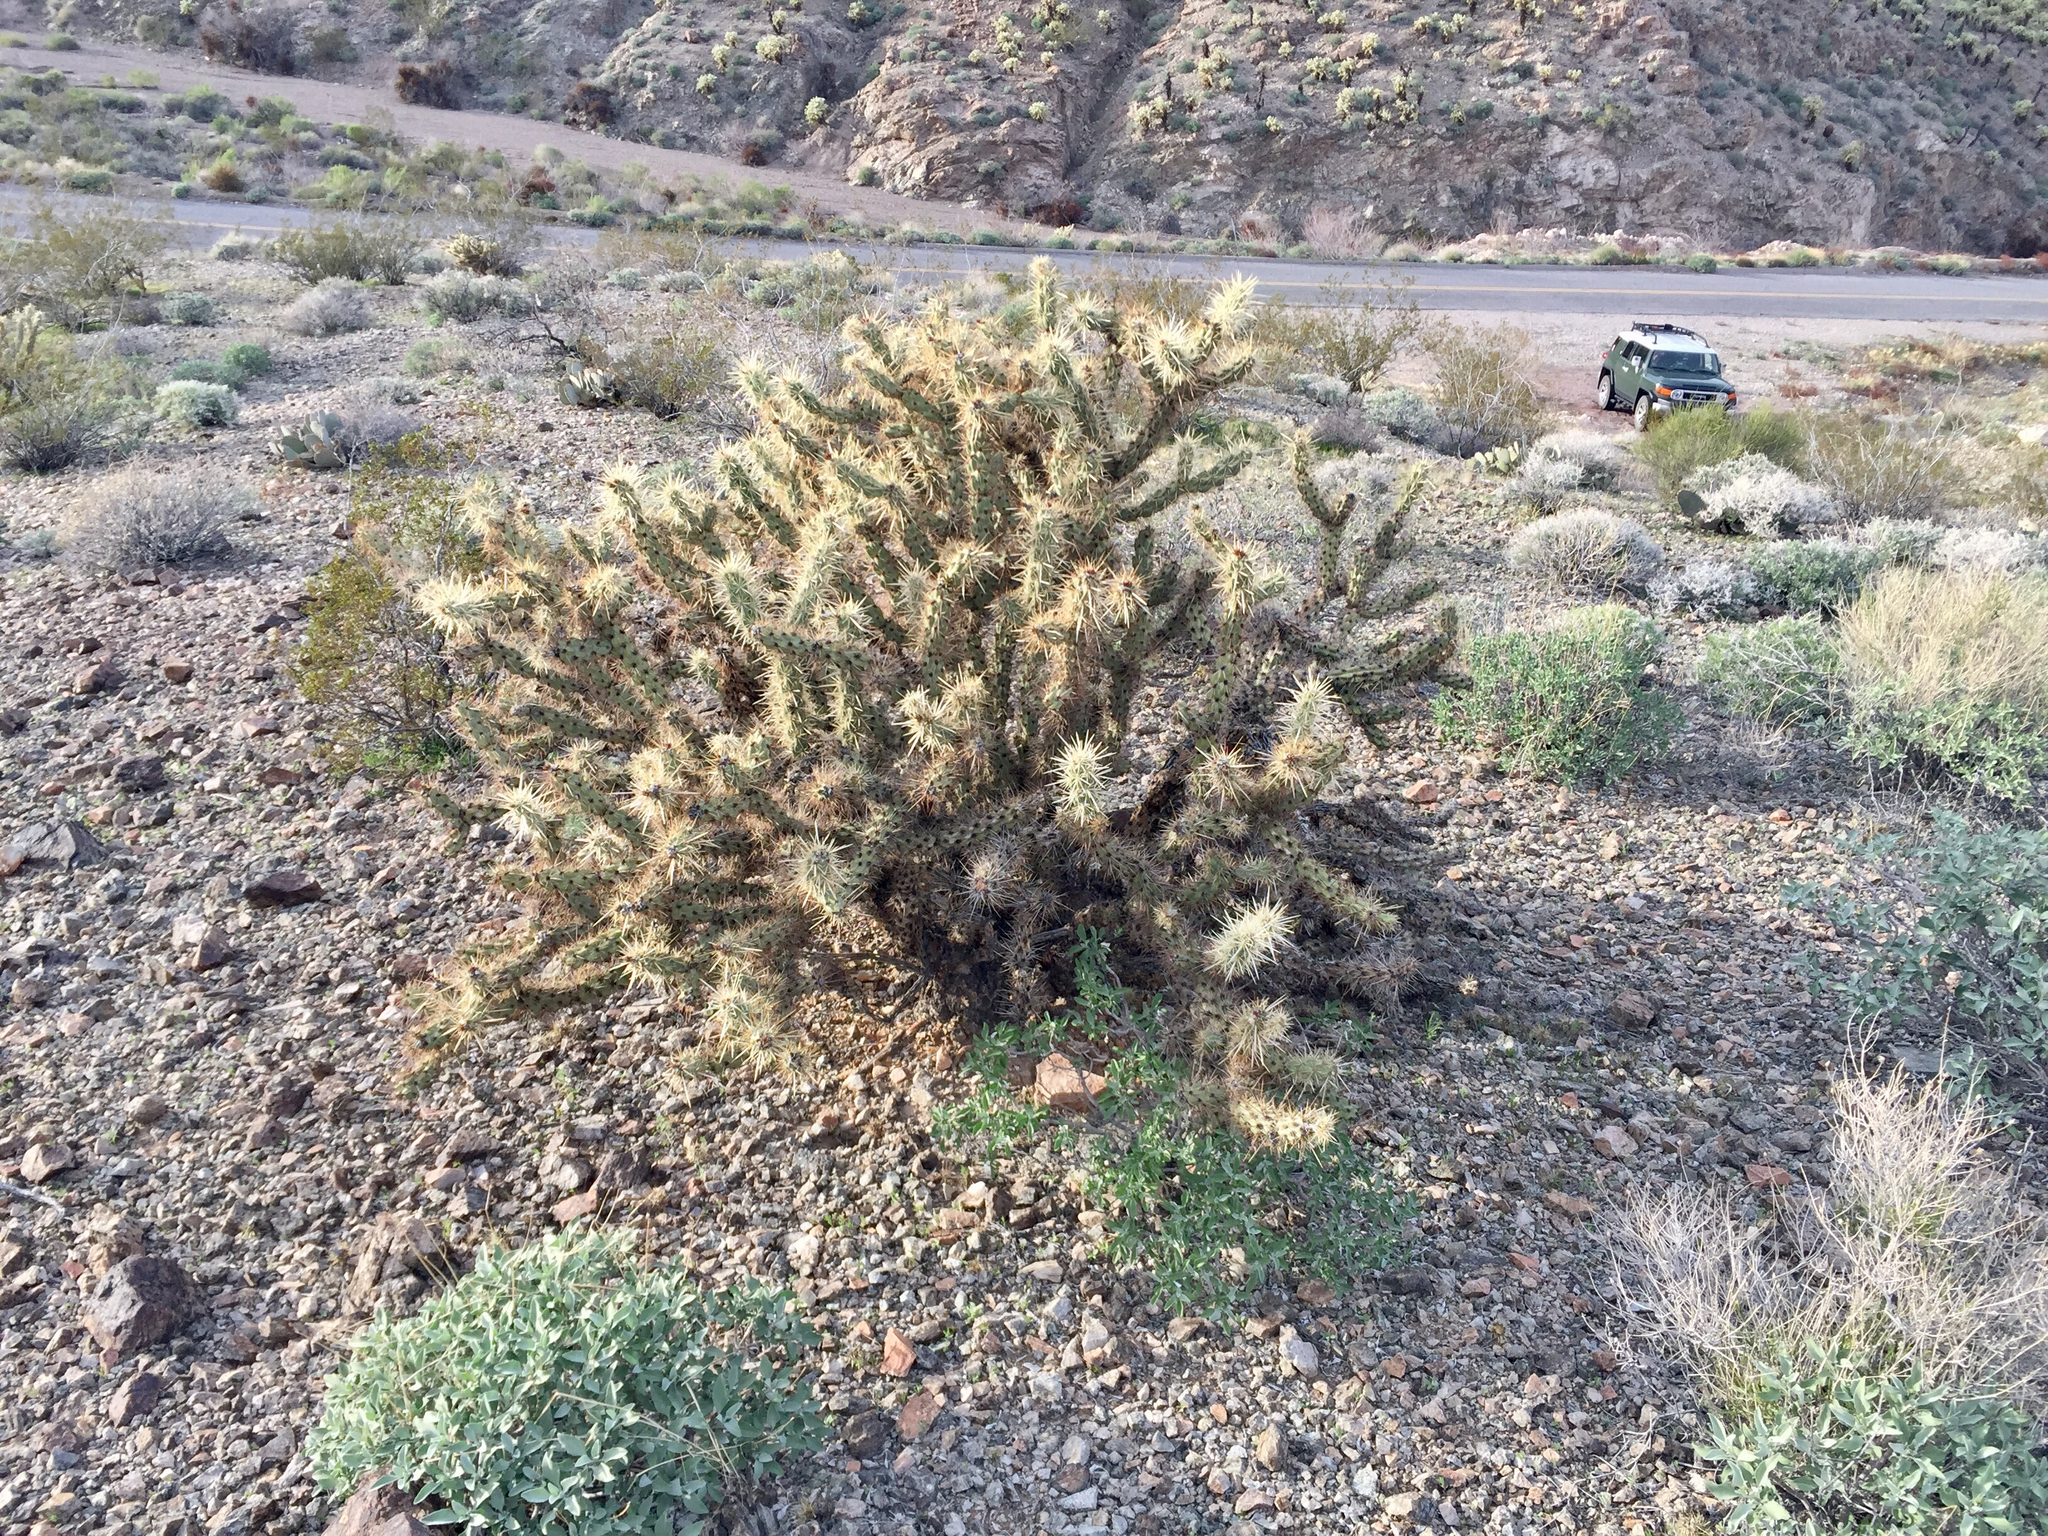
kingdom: Plantae
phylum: Tracheophyta
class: Magnoliopsida
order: Caryophyllales
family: Cactaceae
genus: Cylindropuntia
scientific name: Cylindropuntia acanthocarpa
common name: Buckhorn cholla
